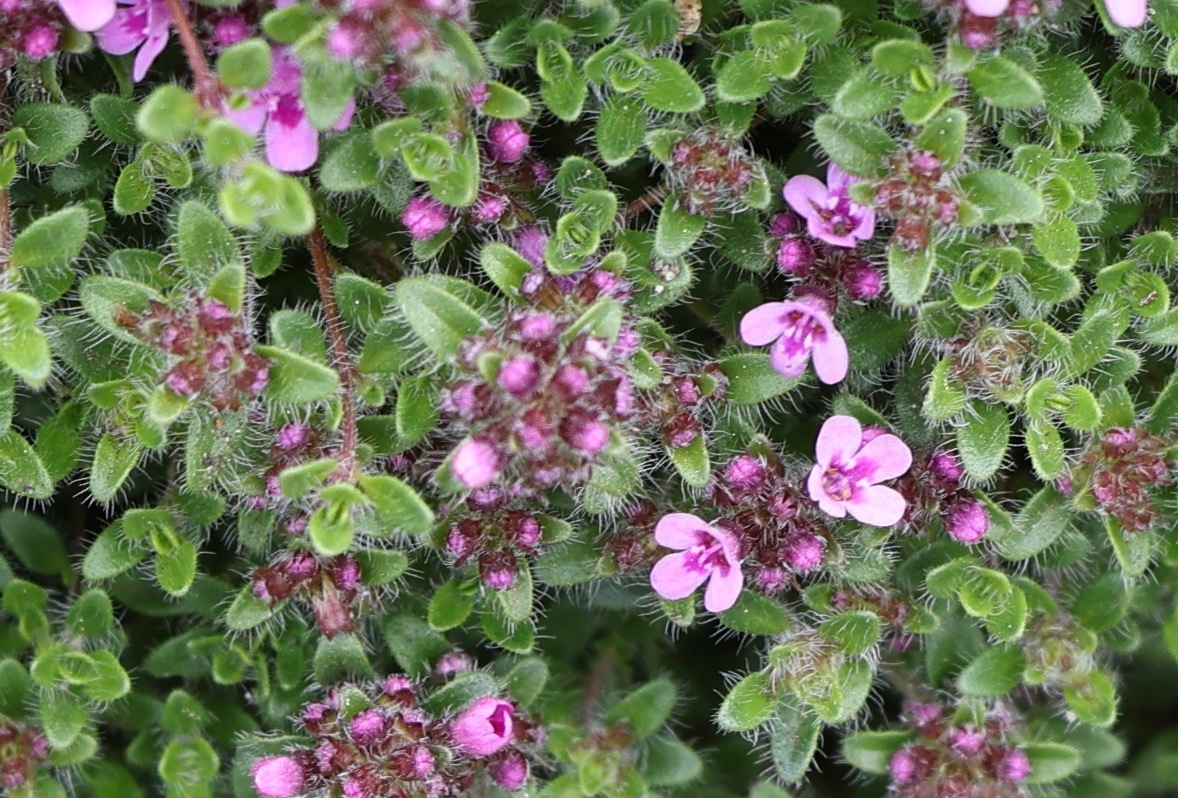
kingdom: Plantae
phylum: Tracheophyta
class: Magnoliopsida
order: Lamiales
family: Lamiaceae
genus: Thymus
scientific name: Thymus praecox
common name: Wild thyme
